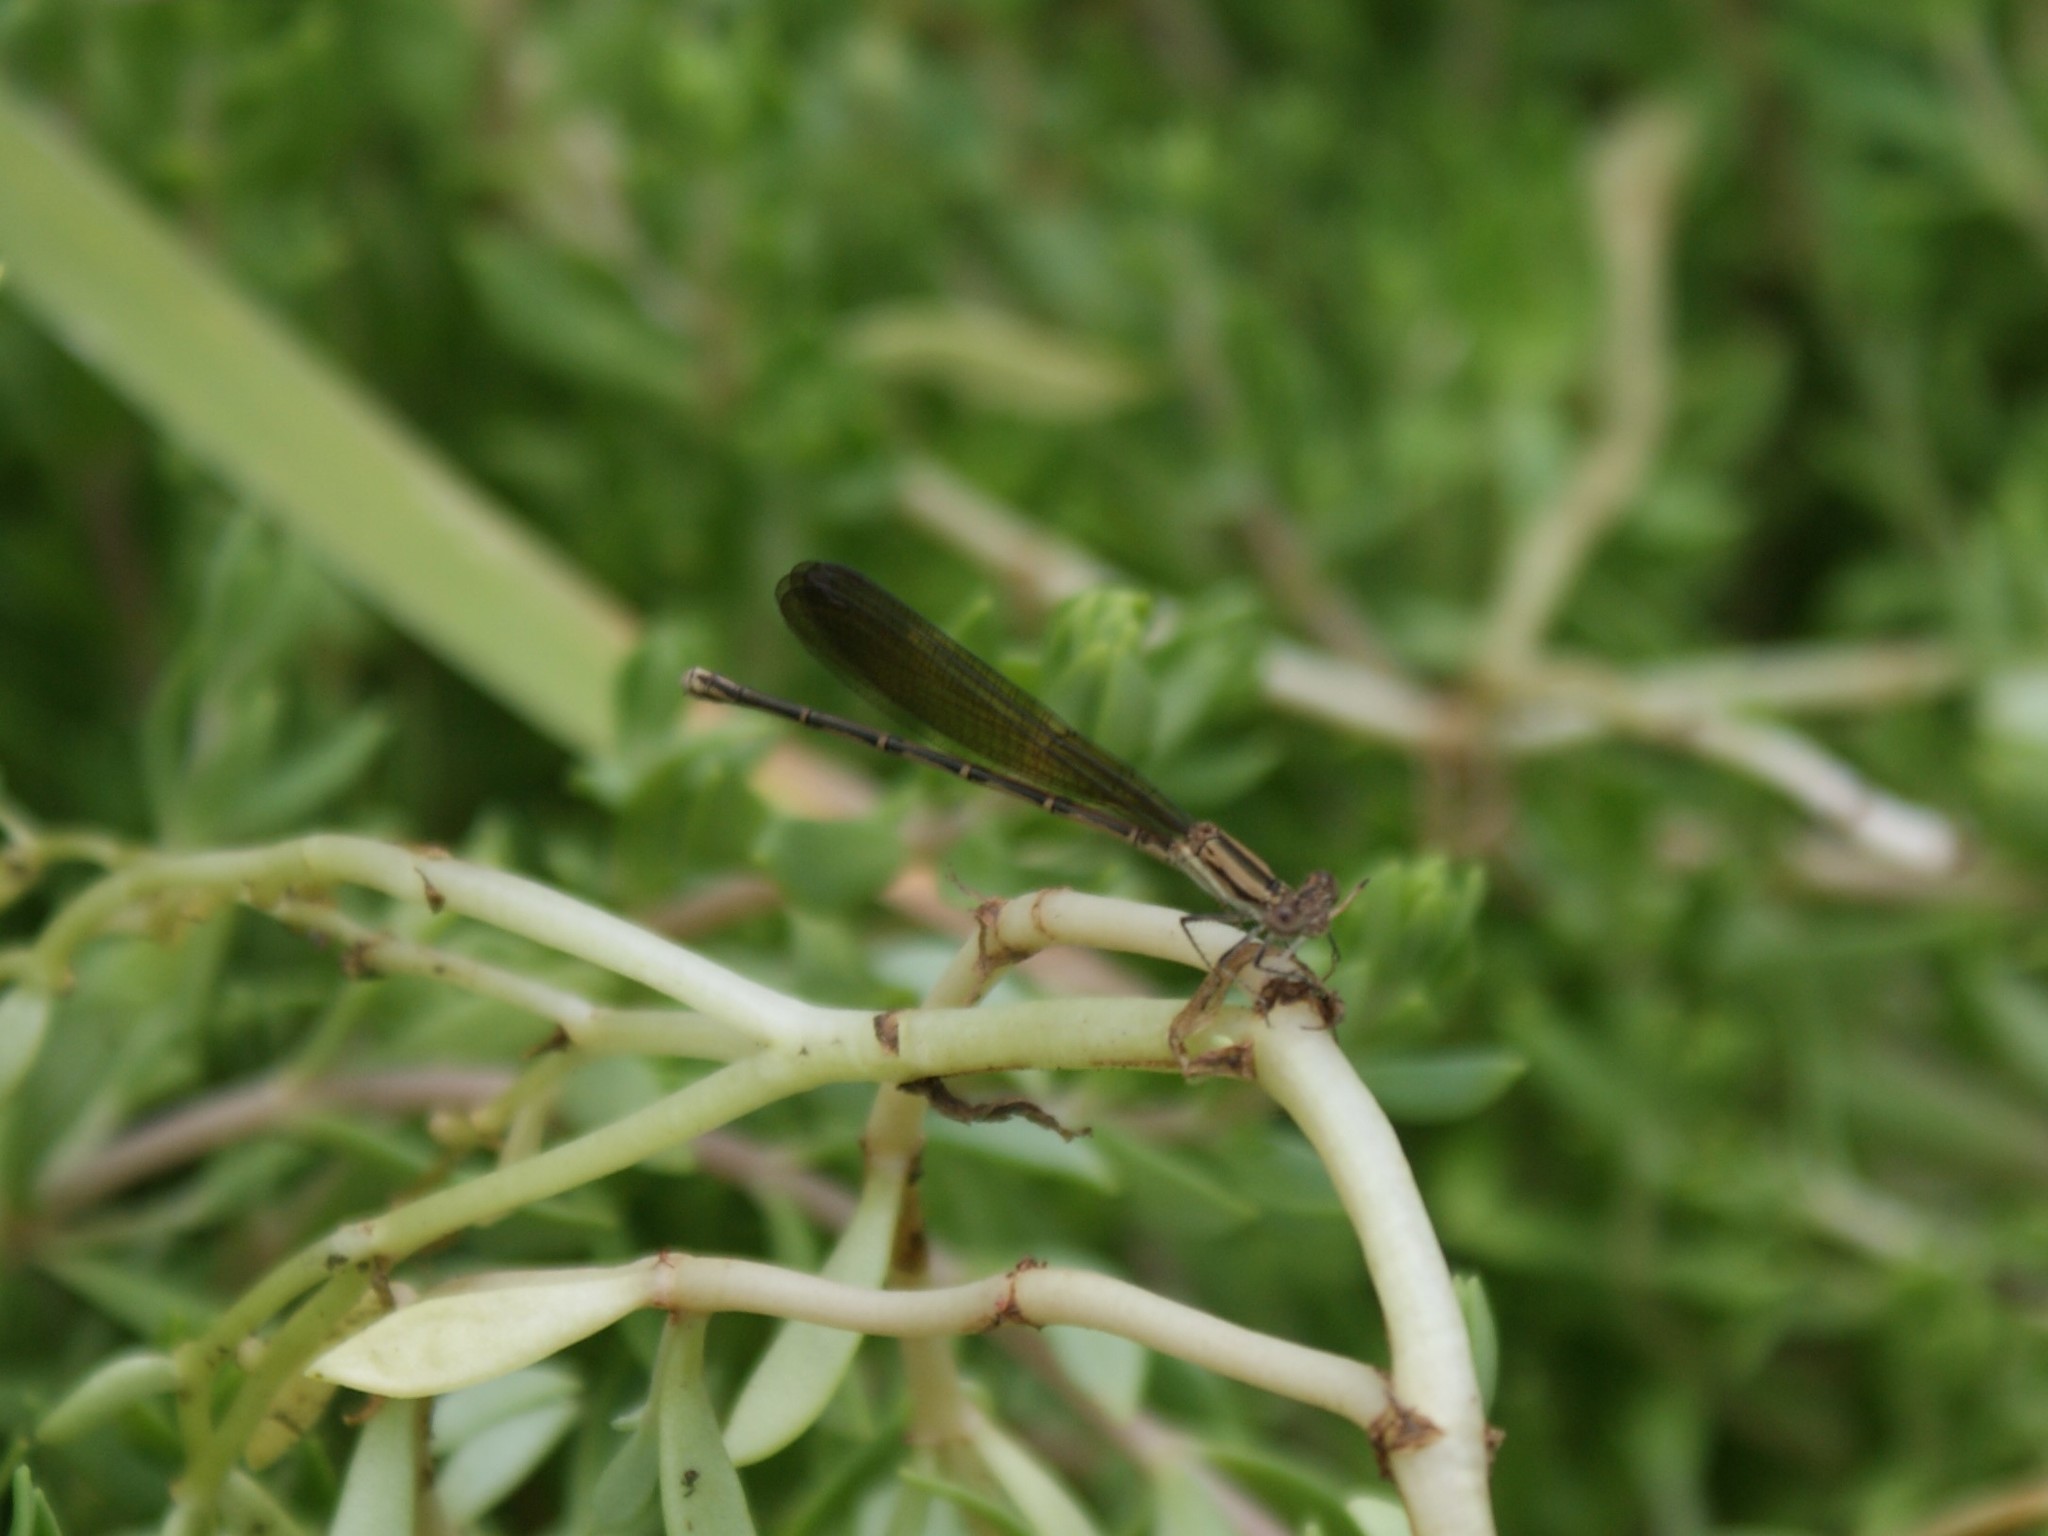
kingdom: Animalia
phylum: Arthropoda
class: Insecta
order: Odonata
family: Coenagrionidae
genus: Argia
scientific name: Argia fumipennis
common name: Variable dancer
